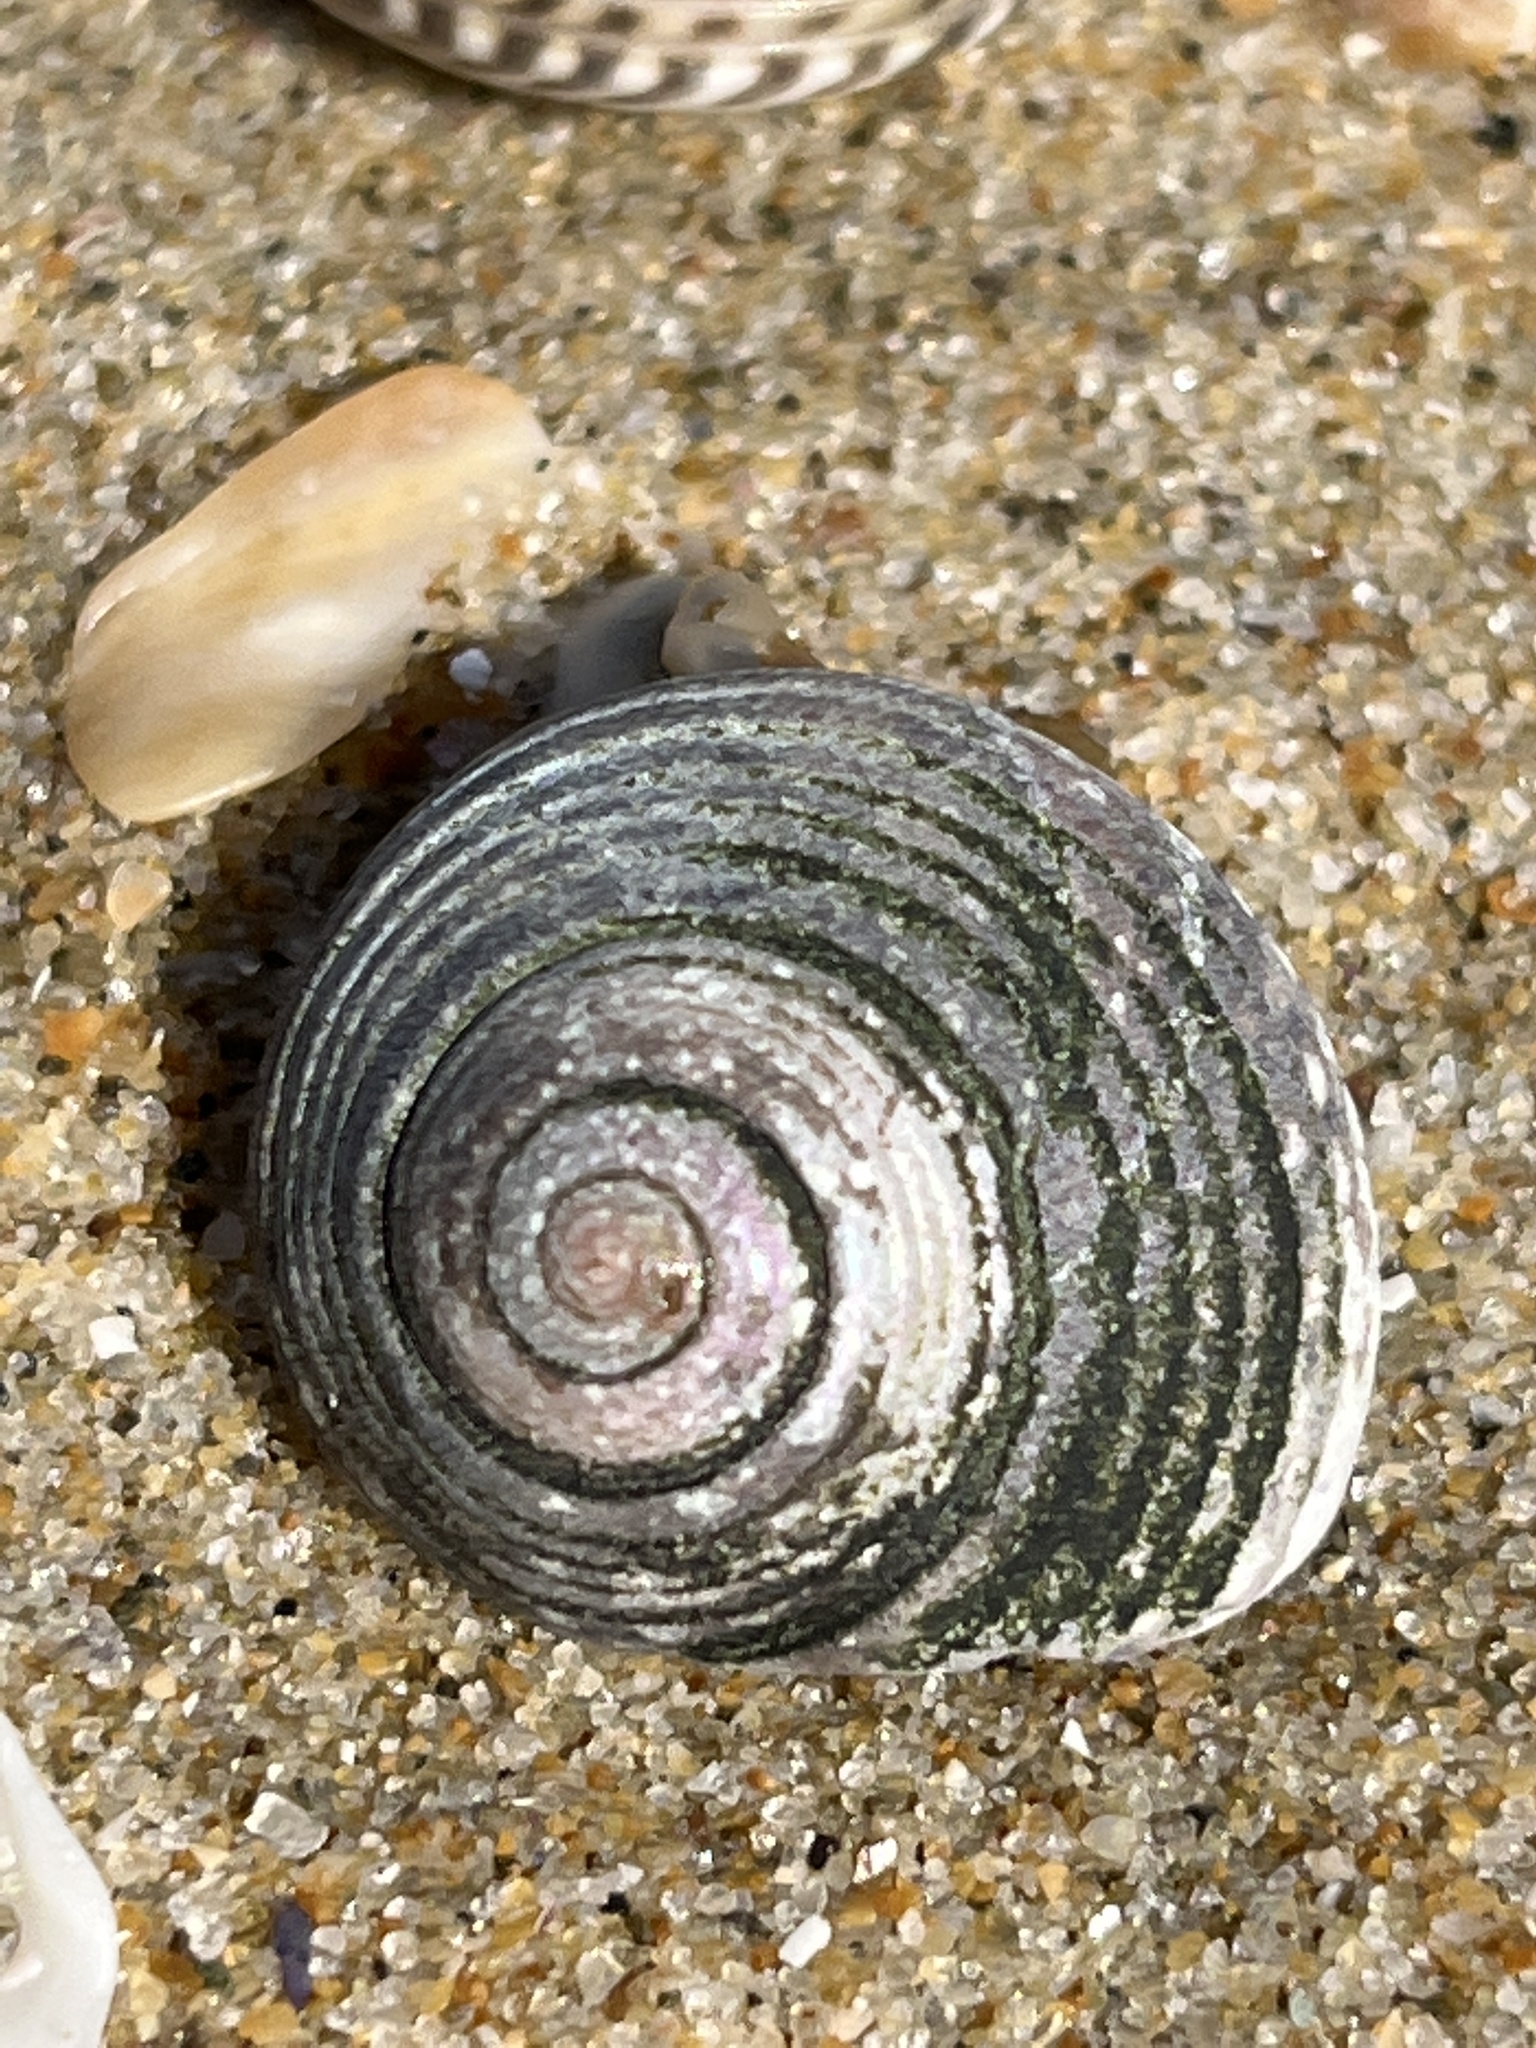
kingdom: Animalia
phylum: Mollusca
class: Gastropoda
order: Trochida
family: Trochidae
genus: Umbonium
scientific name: Umbonium costatum
